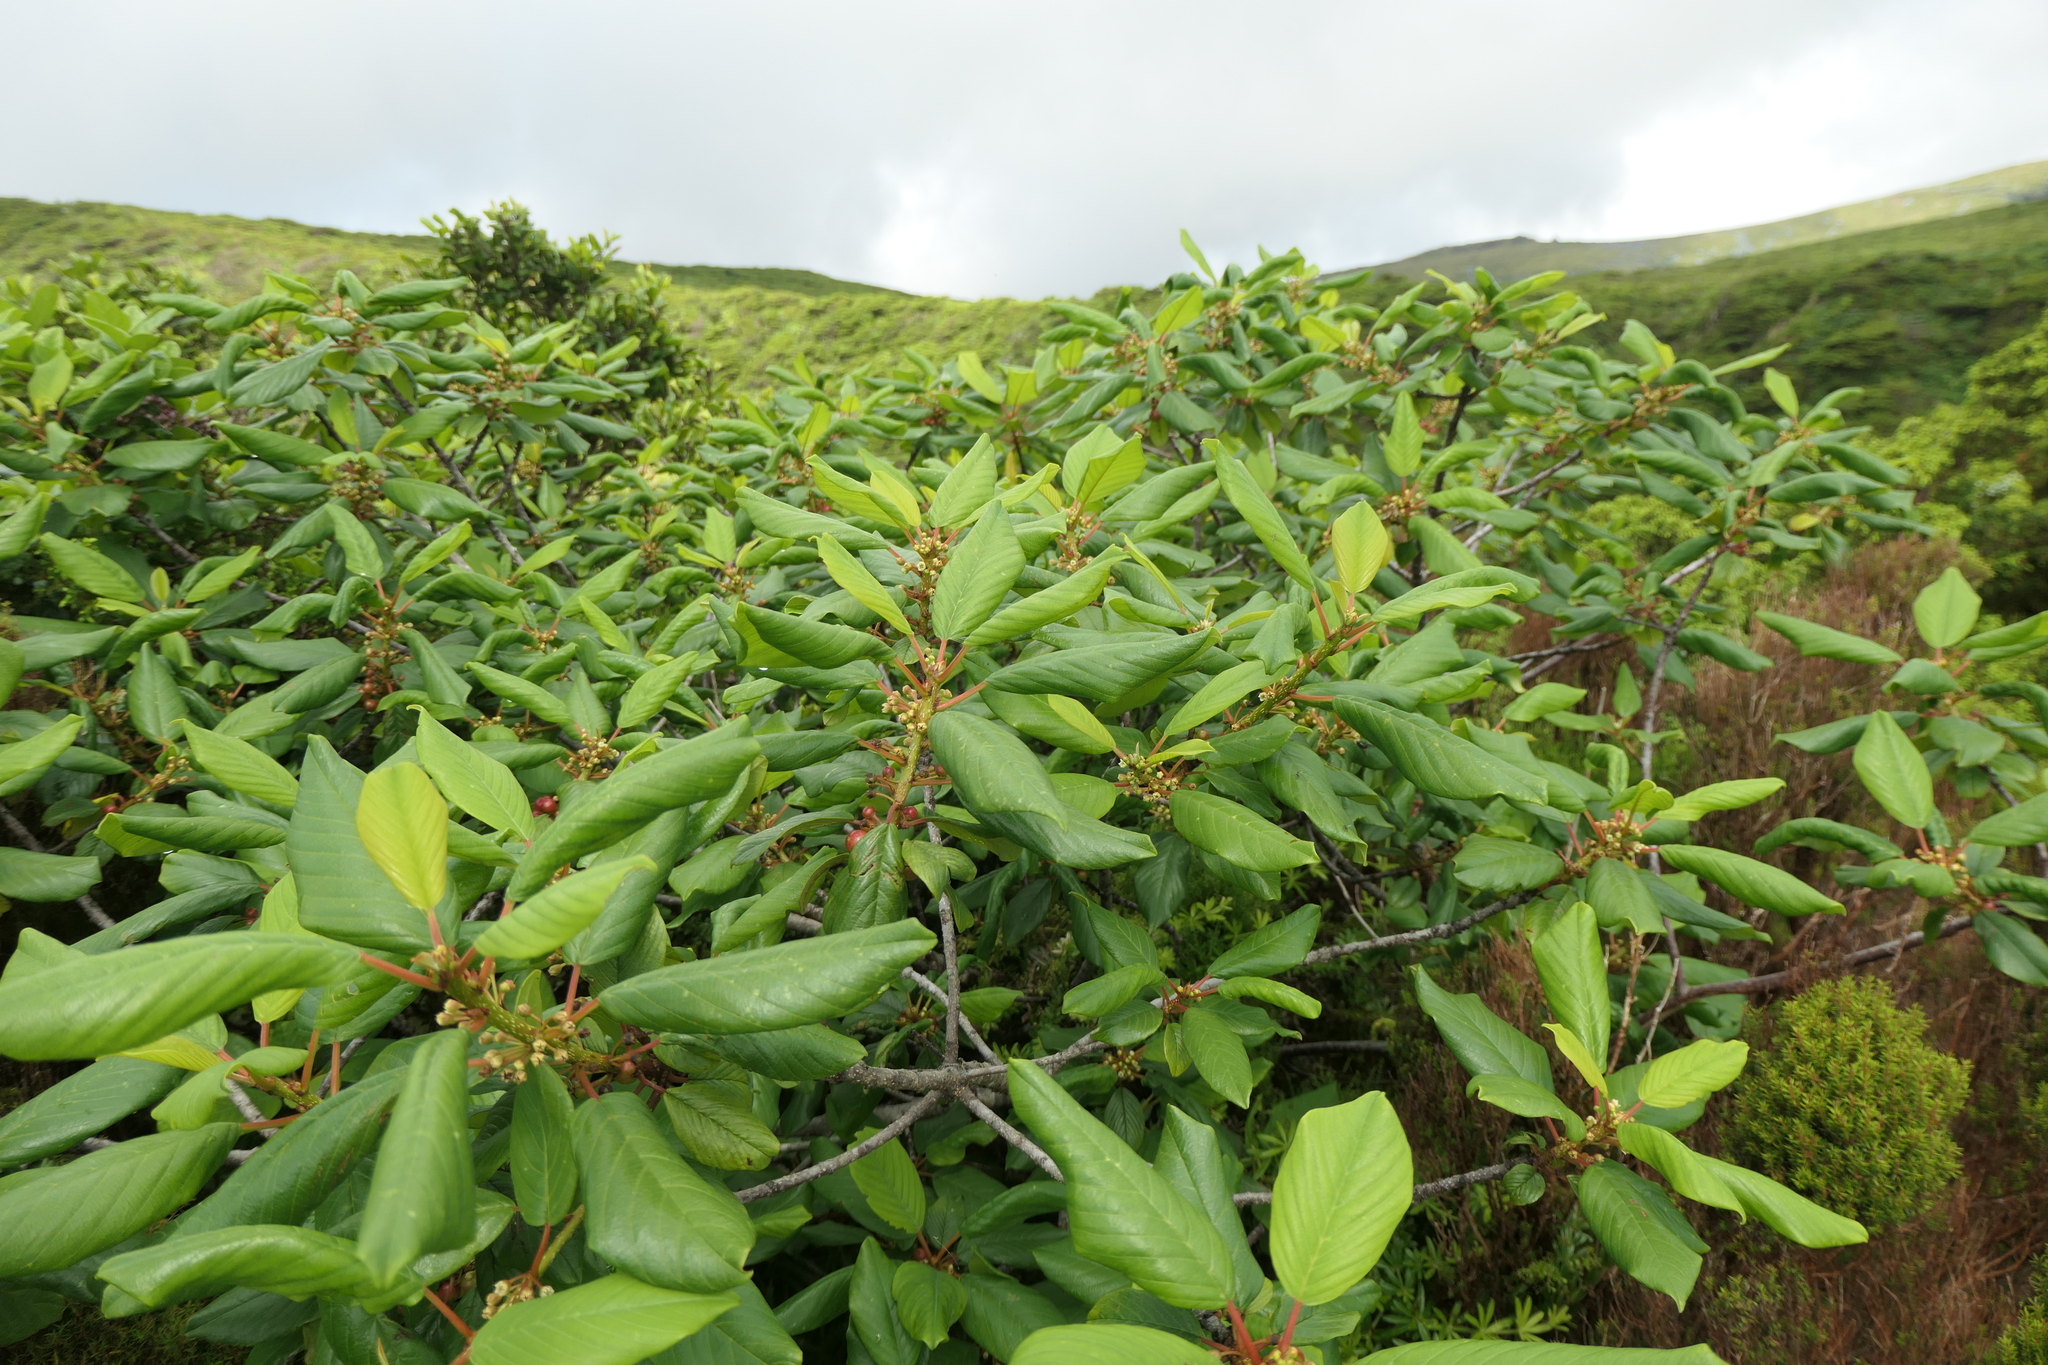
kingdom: Plantae
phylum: Tracheophyta
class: Magnoliopsida
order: Rosales
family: Rhamnaceae
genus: Frangula
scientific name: Frangula azorica
